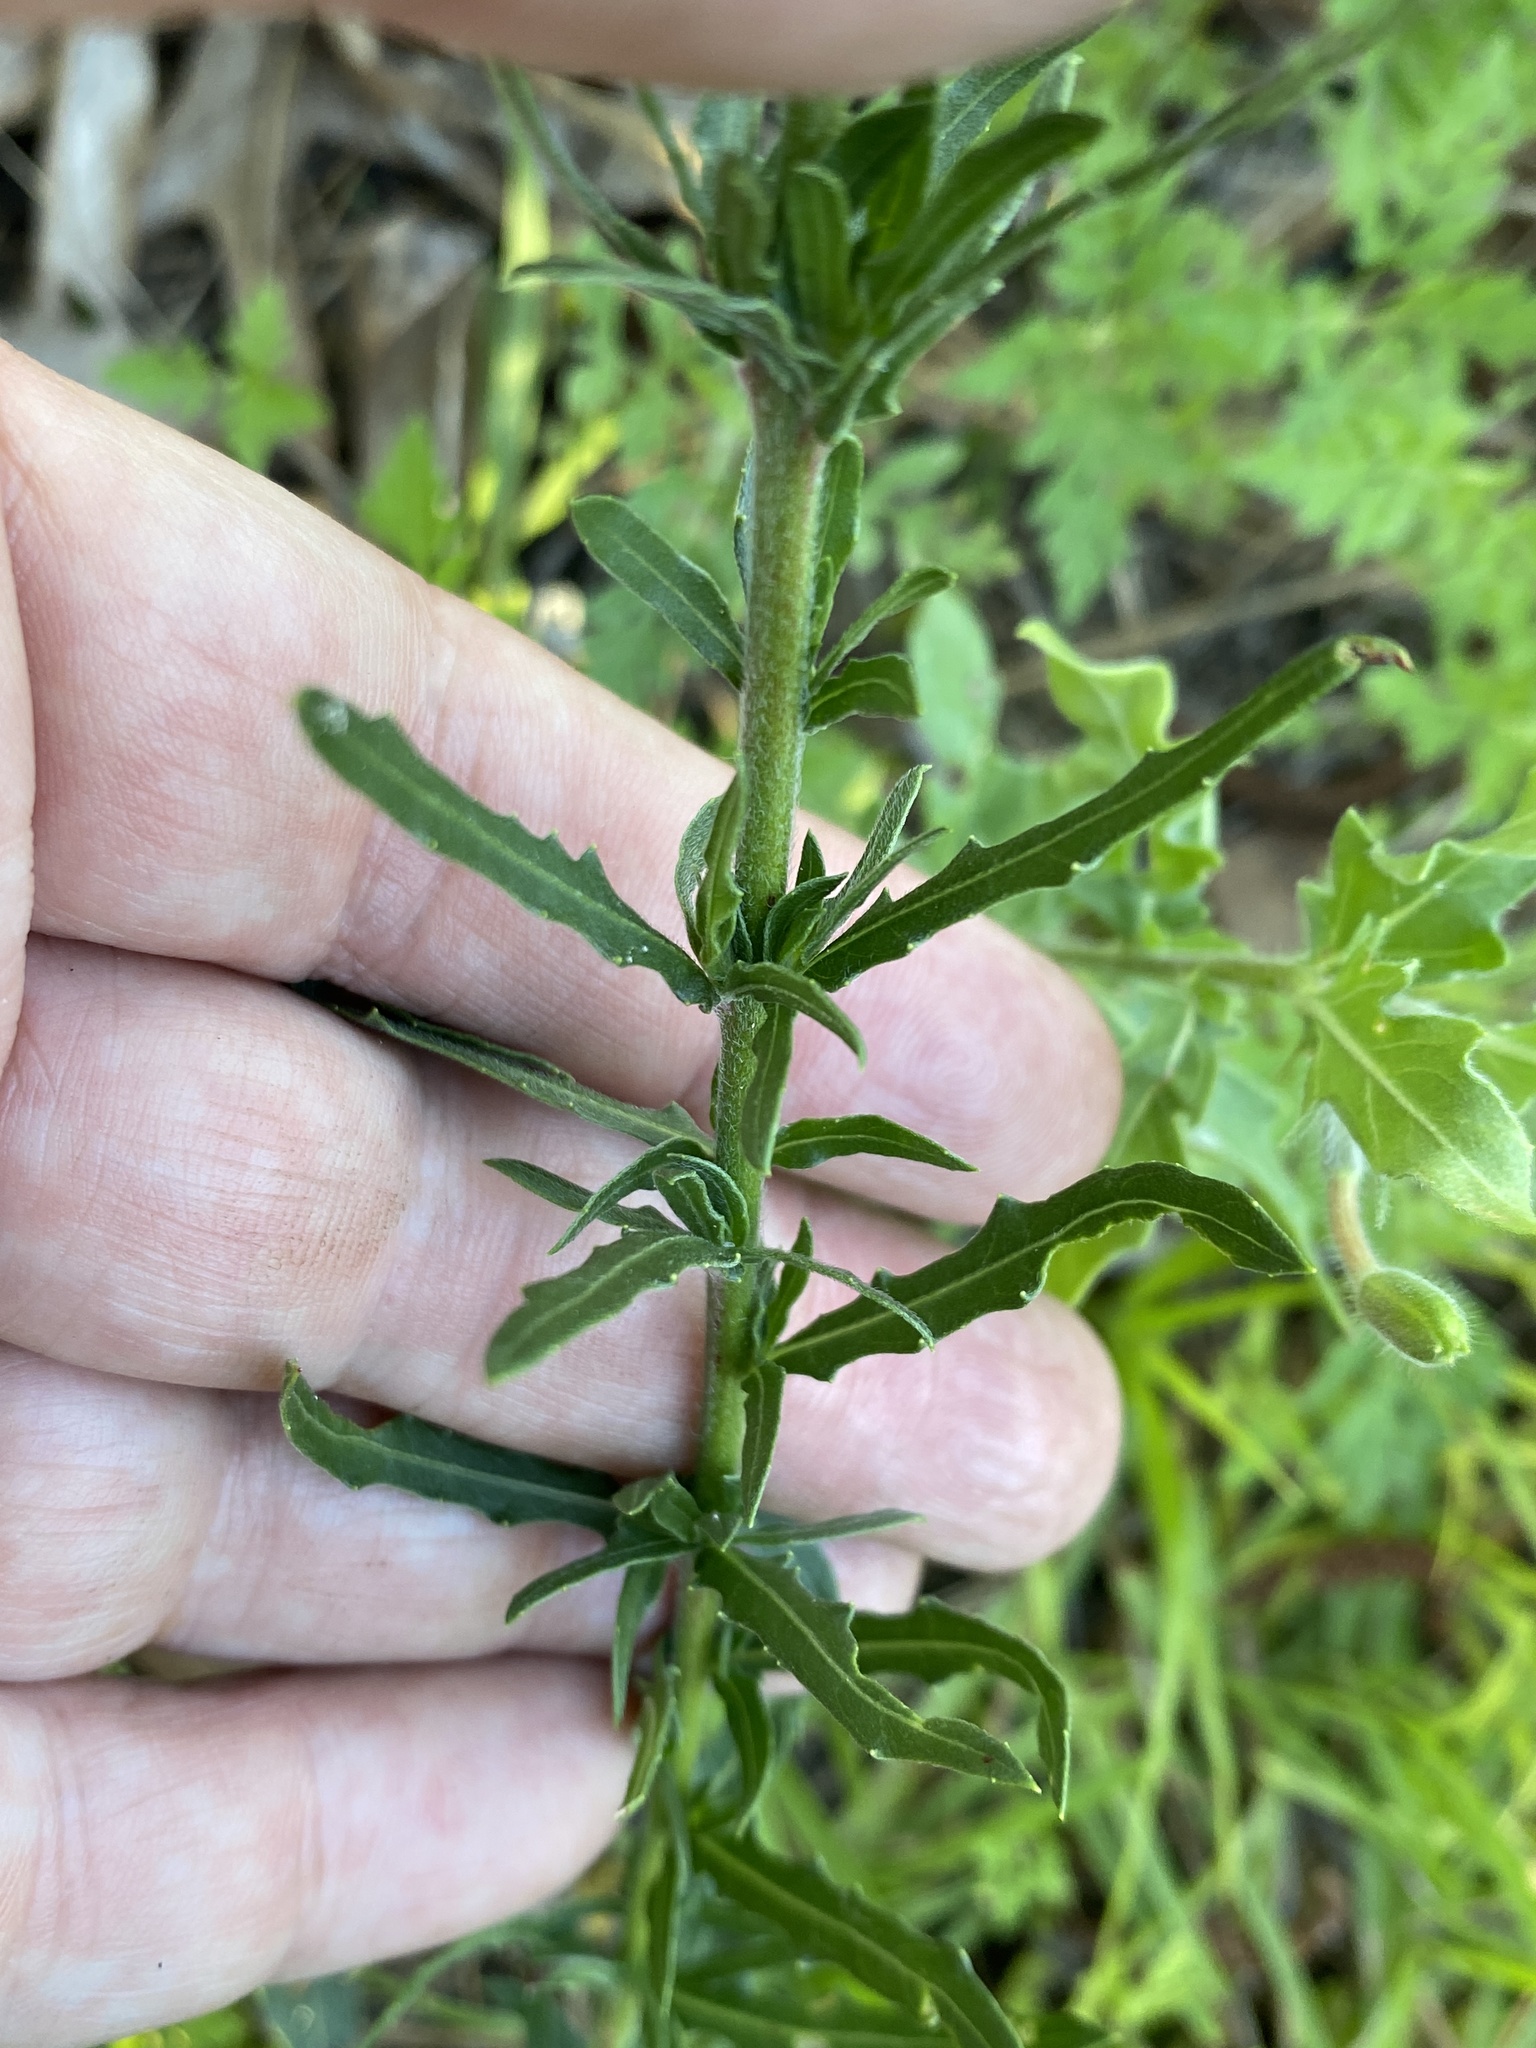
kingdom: Plantae
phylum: Tracheophyta
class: Magnoliopsida
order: Myrtales
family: Onagraceae
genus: Oenothera
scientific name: Oenothera simulans
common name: Southern beeblossom
